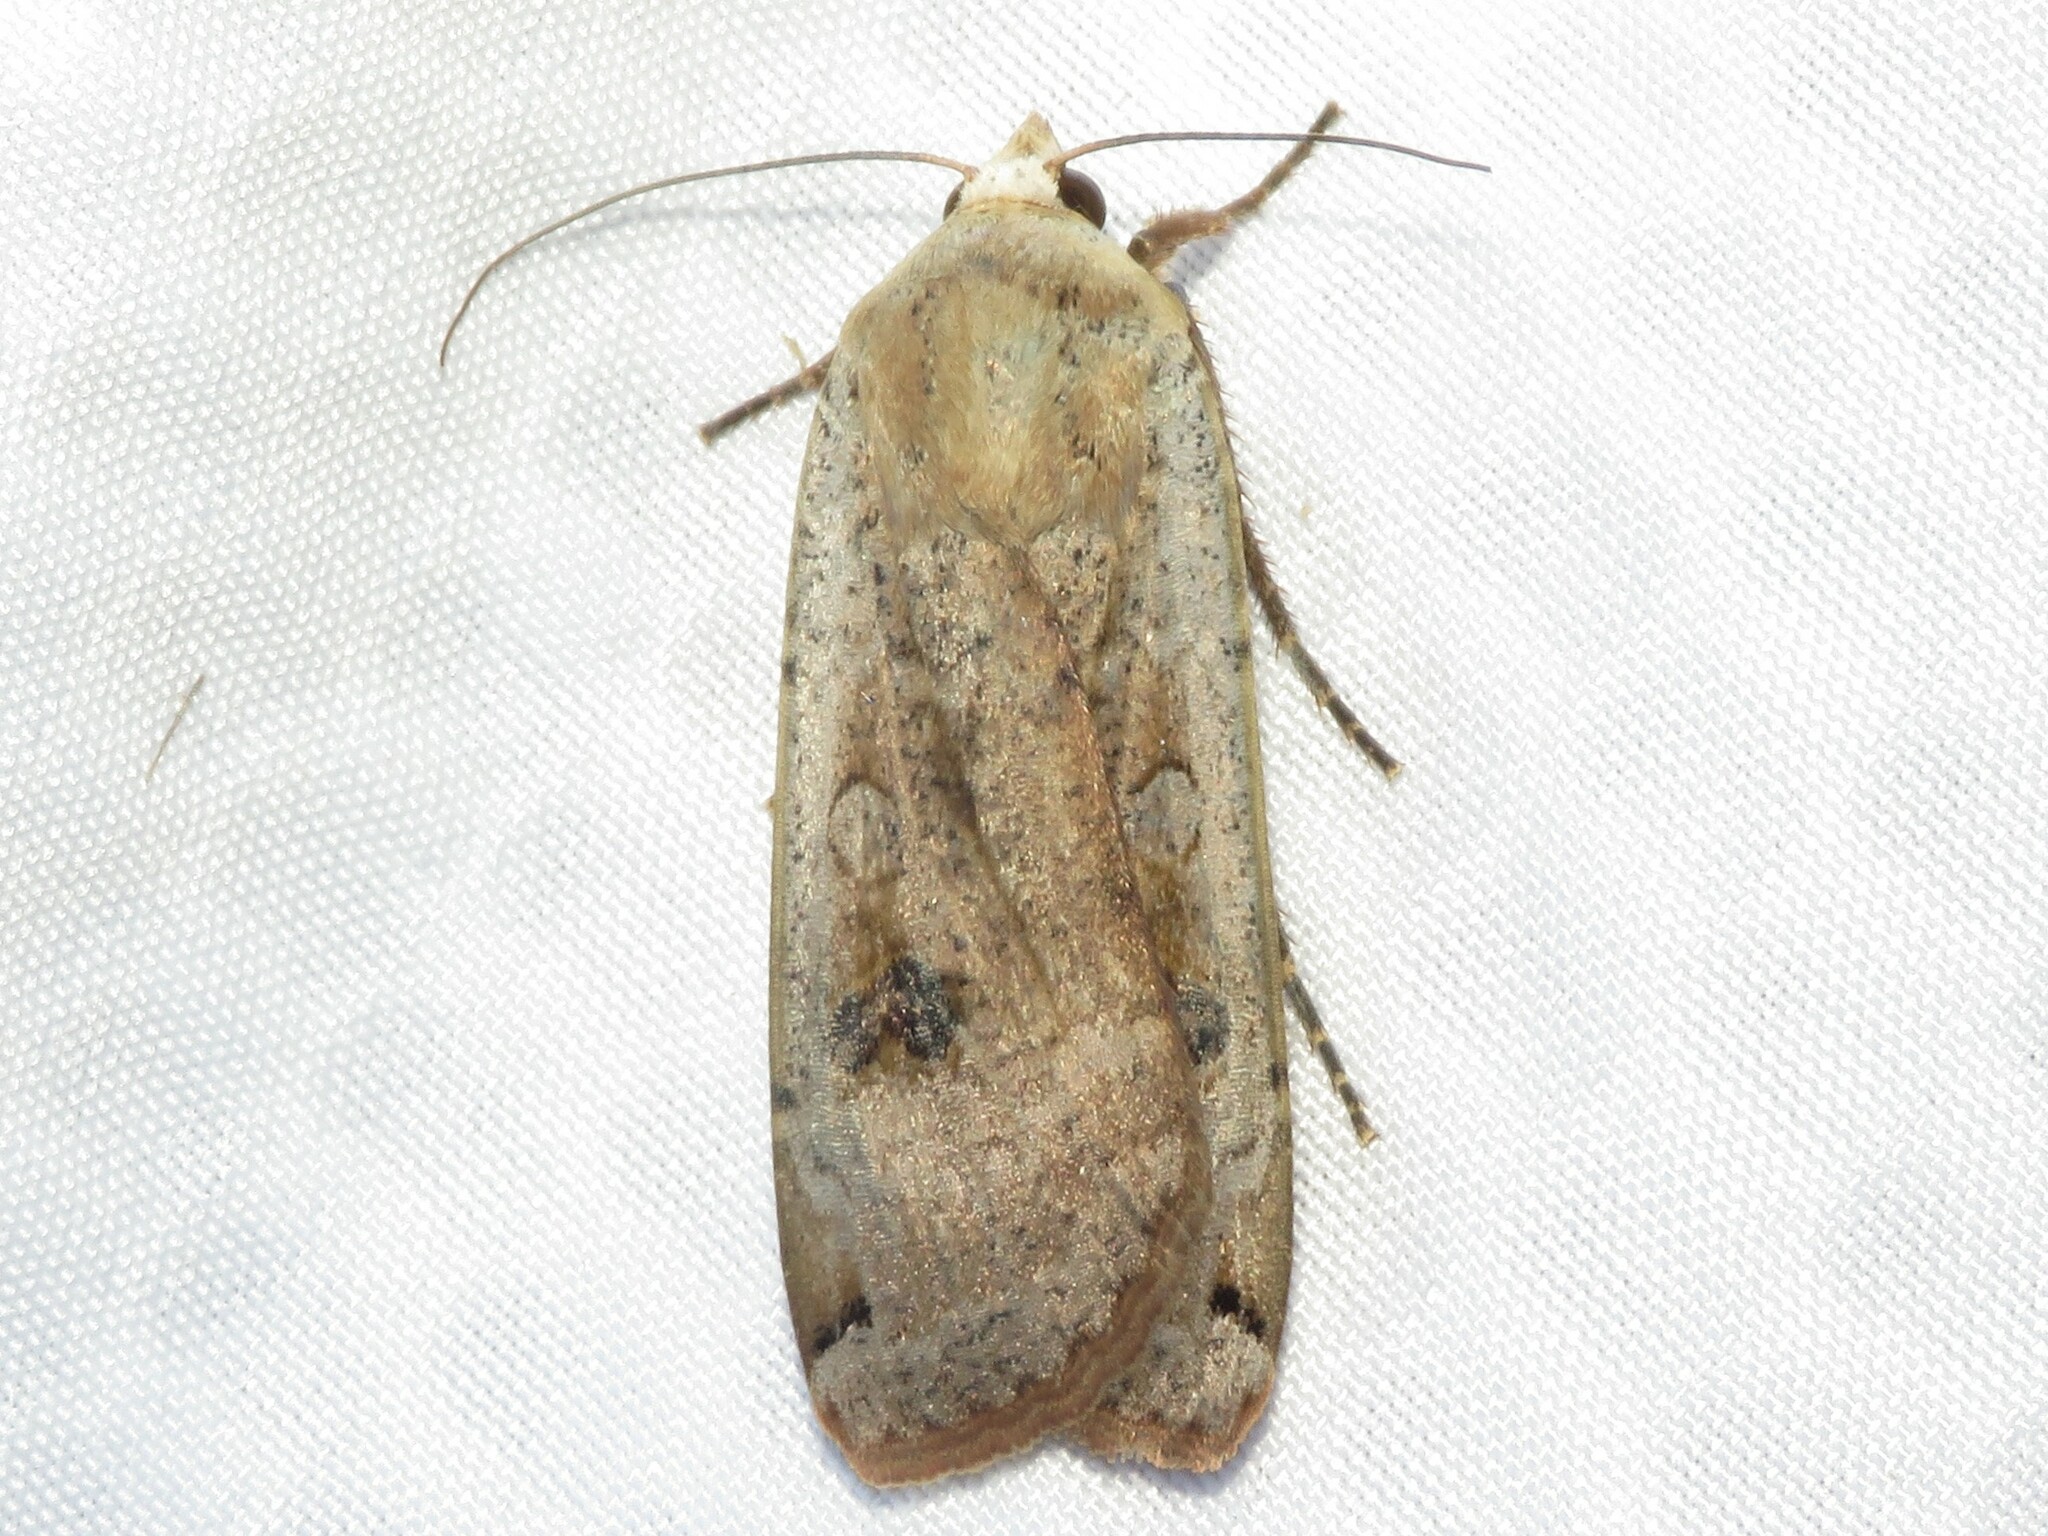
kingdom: Animalia
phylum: Arthropoda
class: Insecta
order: Lepidoptera
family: Noctuidae
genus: Noctua
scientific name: Noctua pronuba
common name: Large yellow underwing
